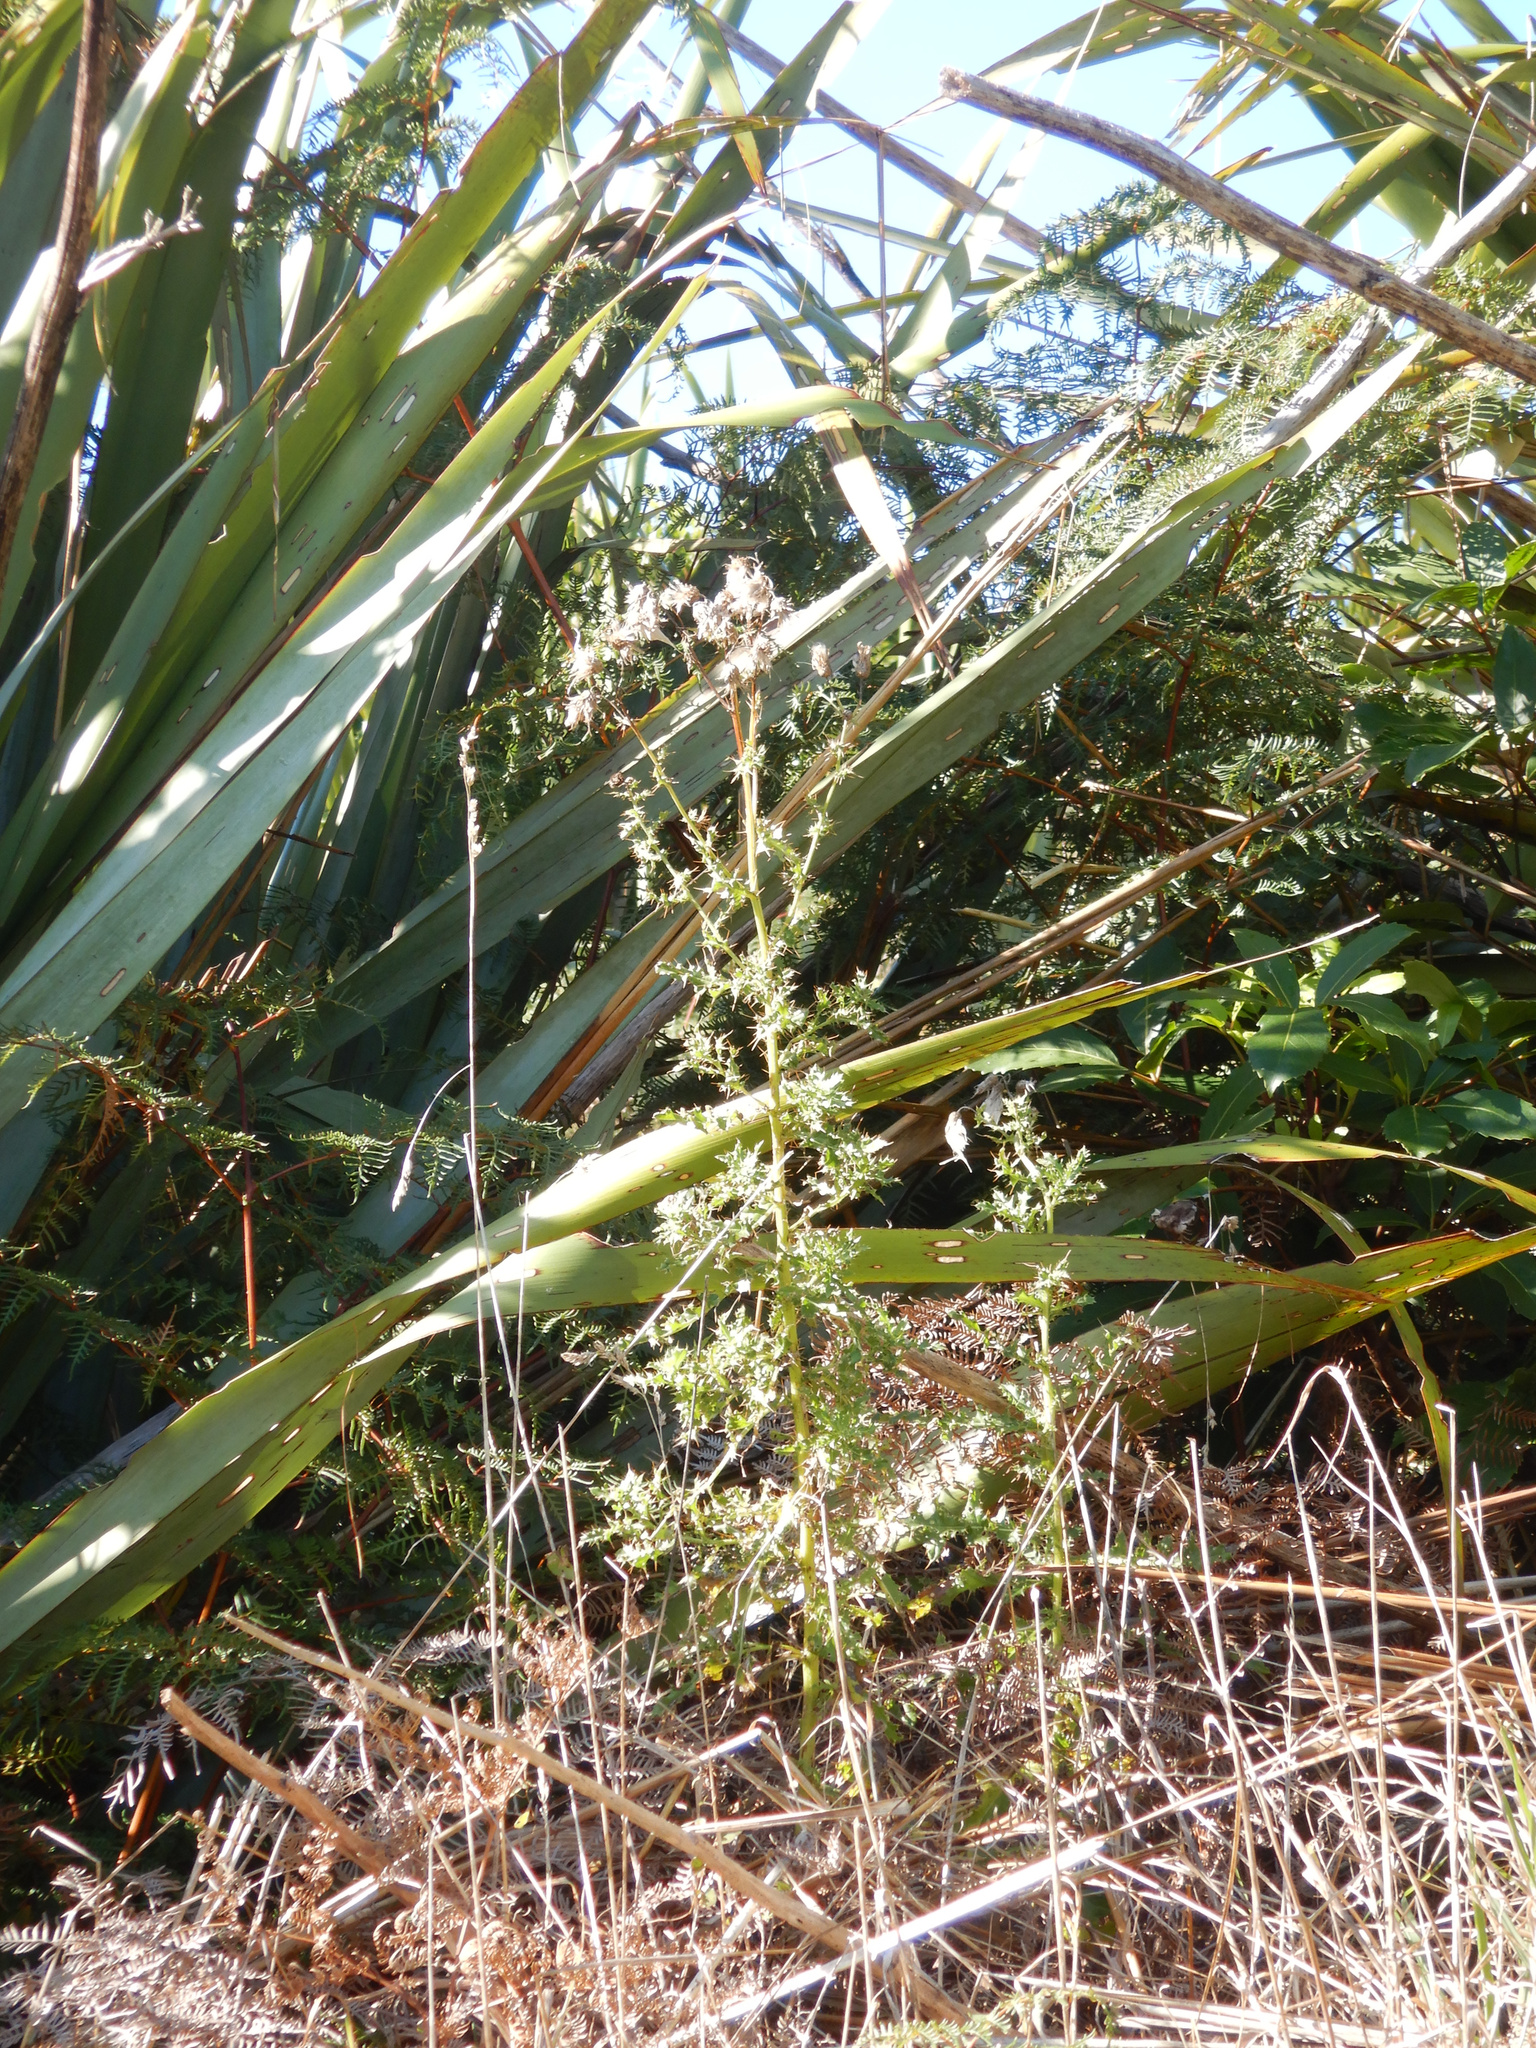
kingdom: Plantae
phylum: Tracheophyta
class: Magnoliopsida
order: Asterales
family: Asteraceae
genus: Cirsium
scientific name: Cirsium arvense
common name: Creeping thistle
